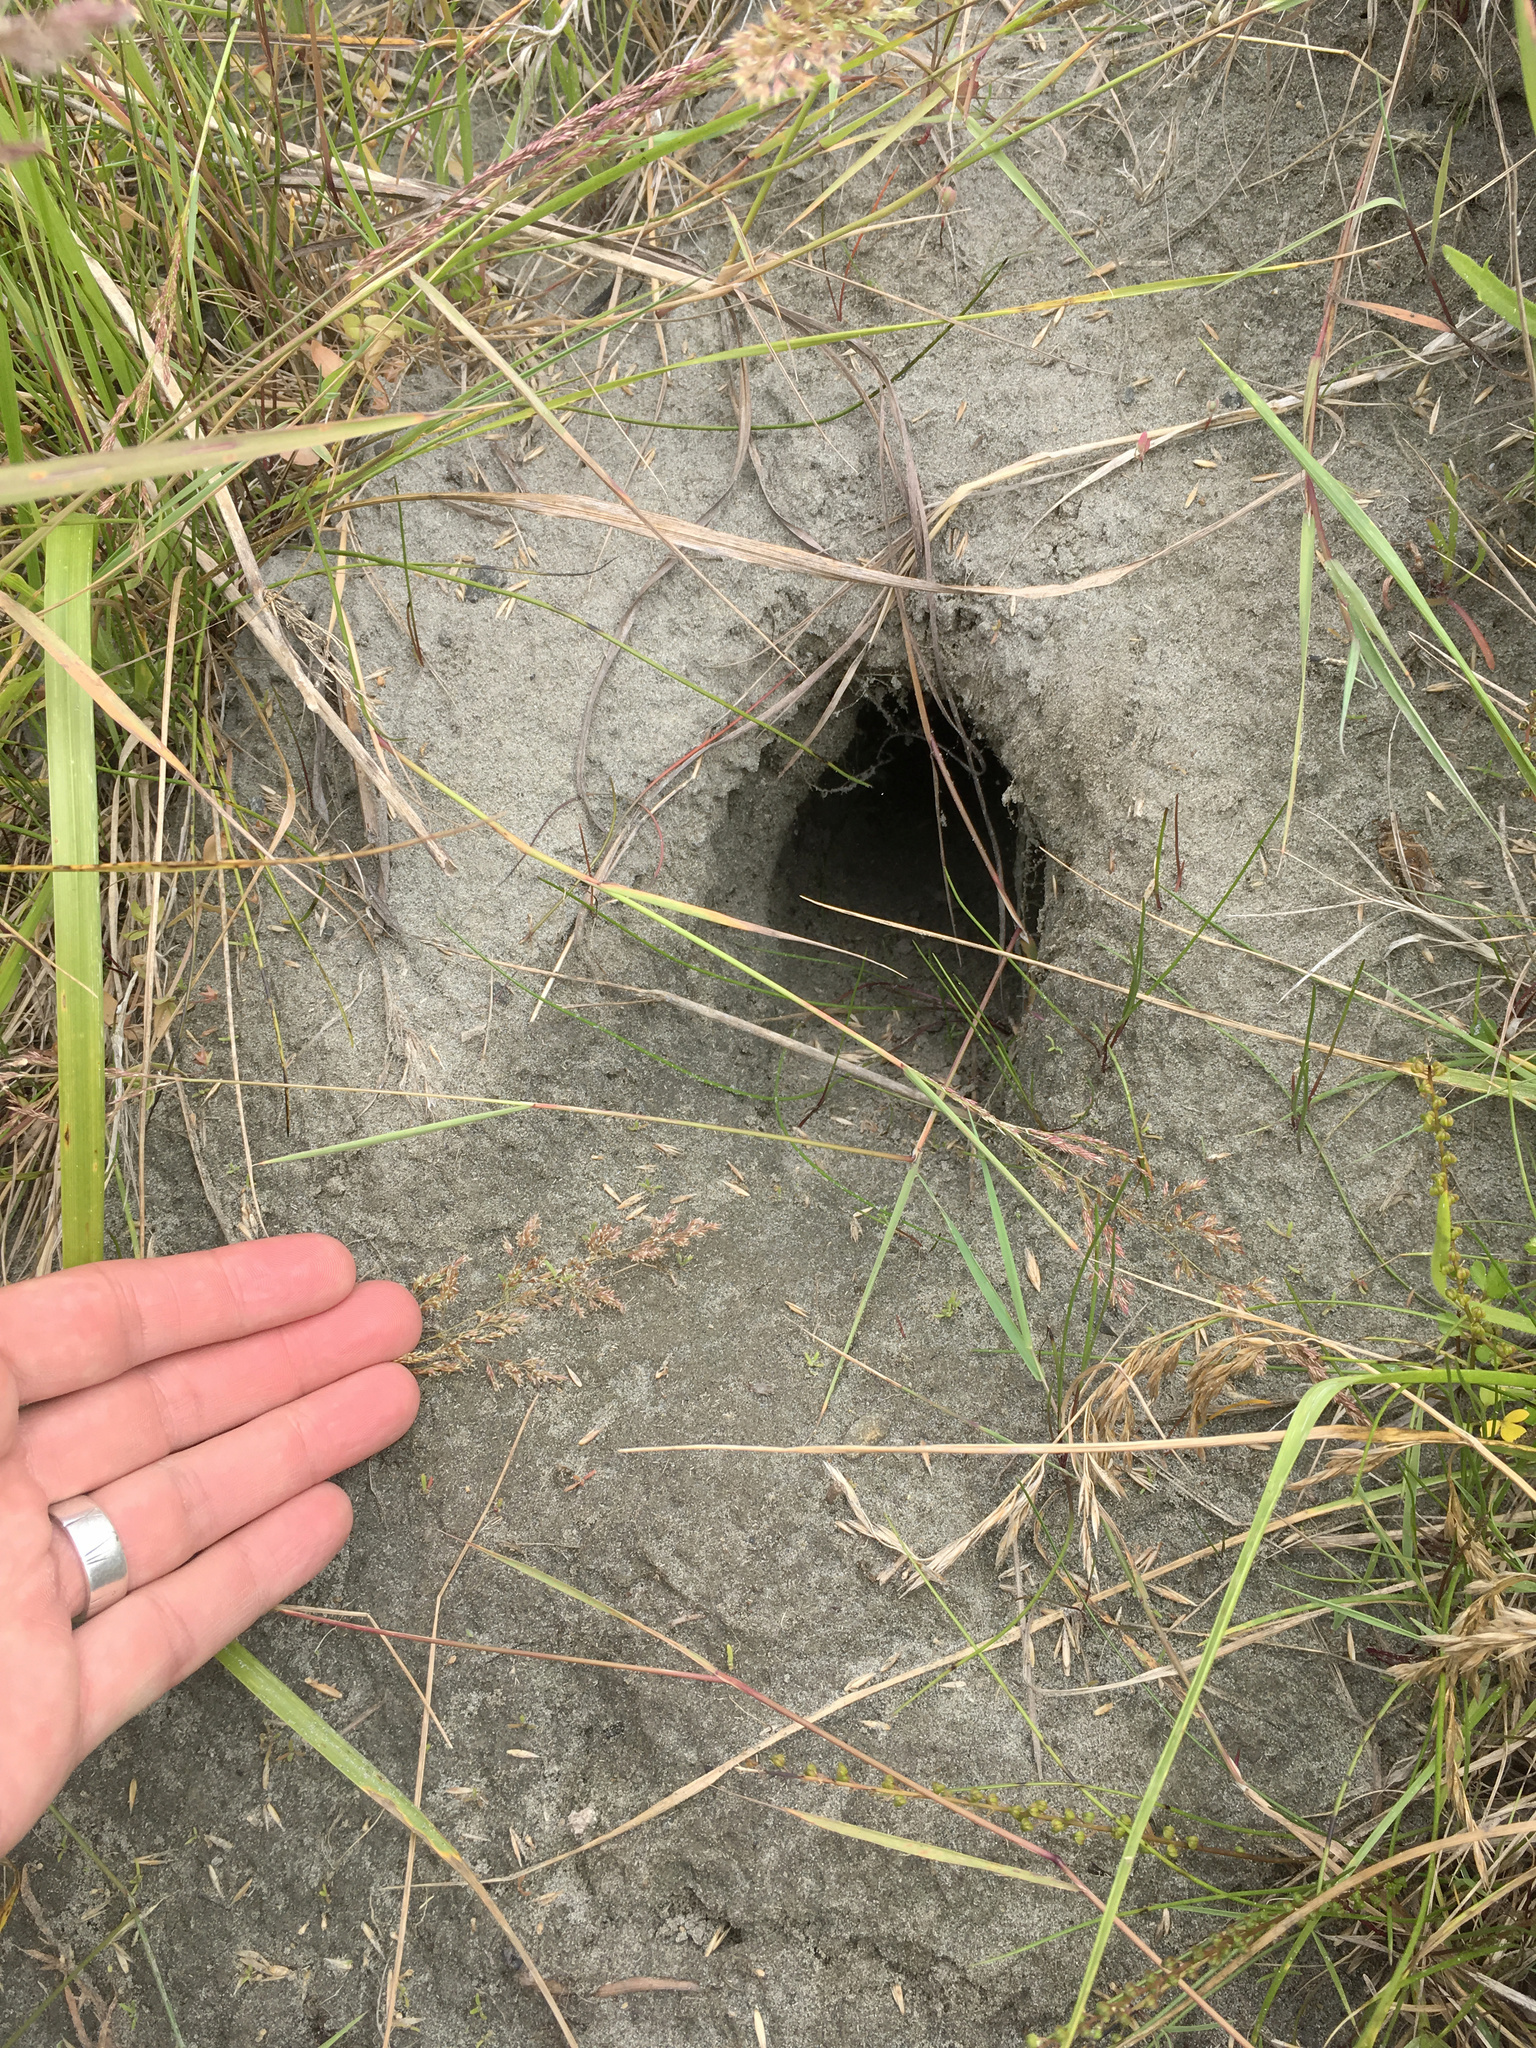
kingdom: Animalia
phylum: Chordata
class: Mammalia
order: Lagomorpha
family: Leporidae
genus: Oryctolagus
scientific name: Oryctolagus cuniculus
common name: European rabbit
